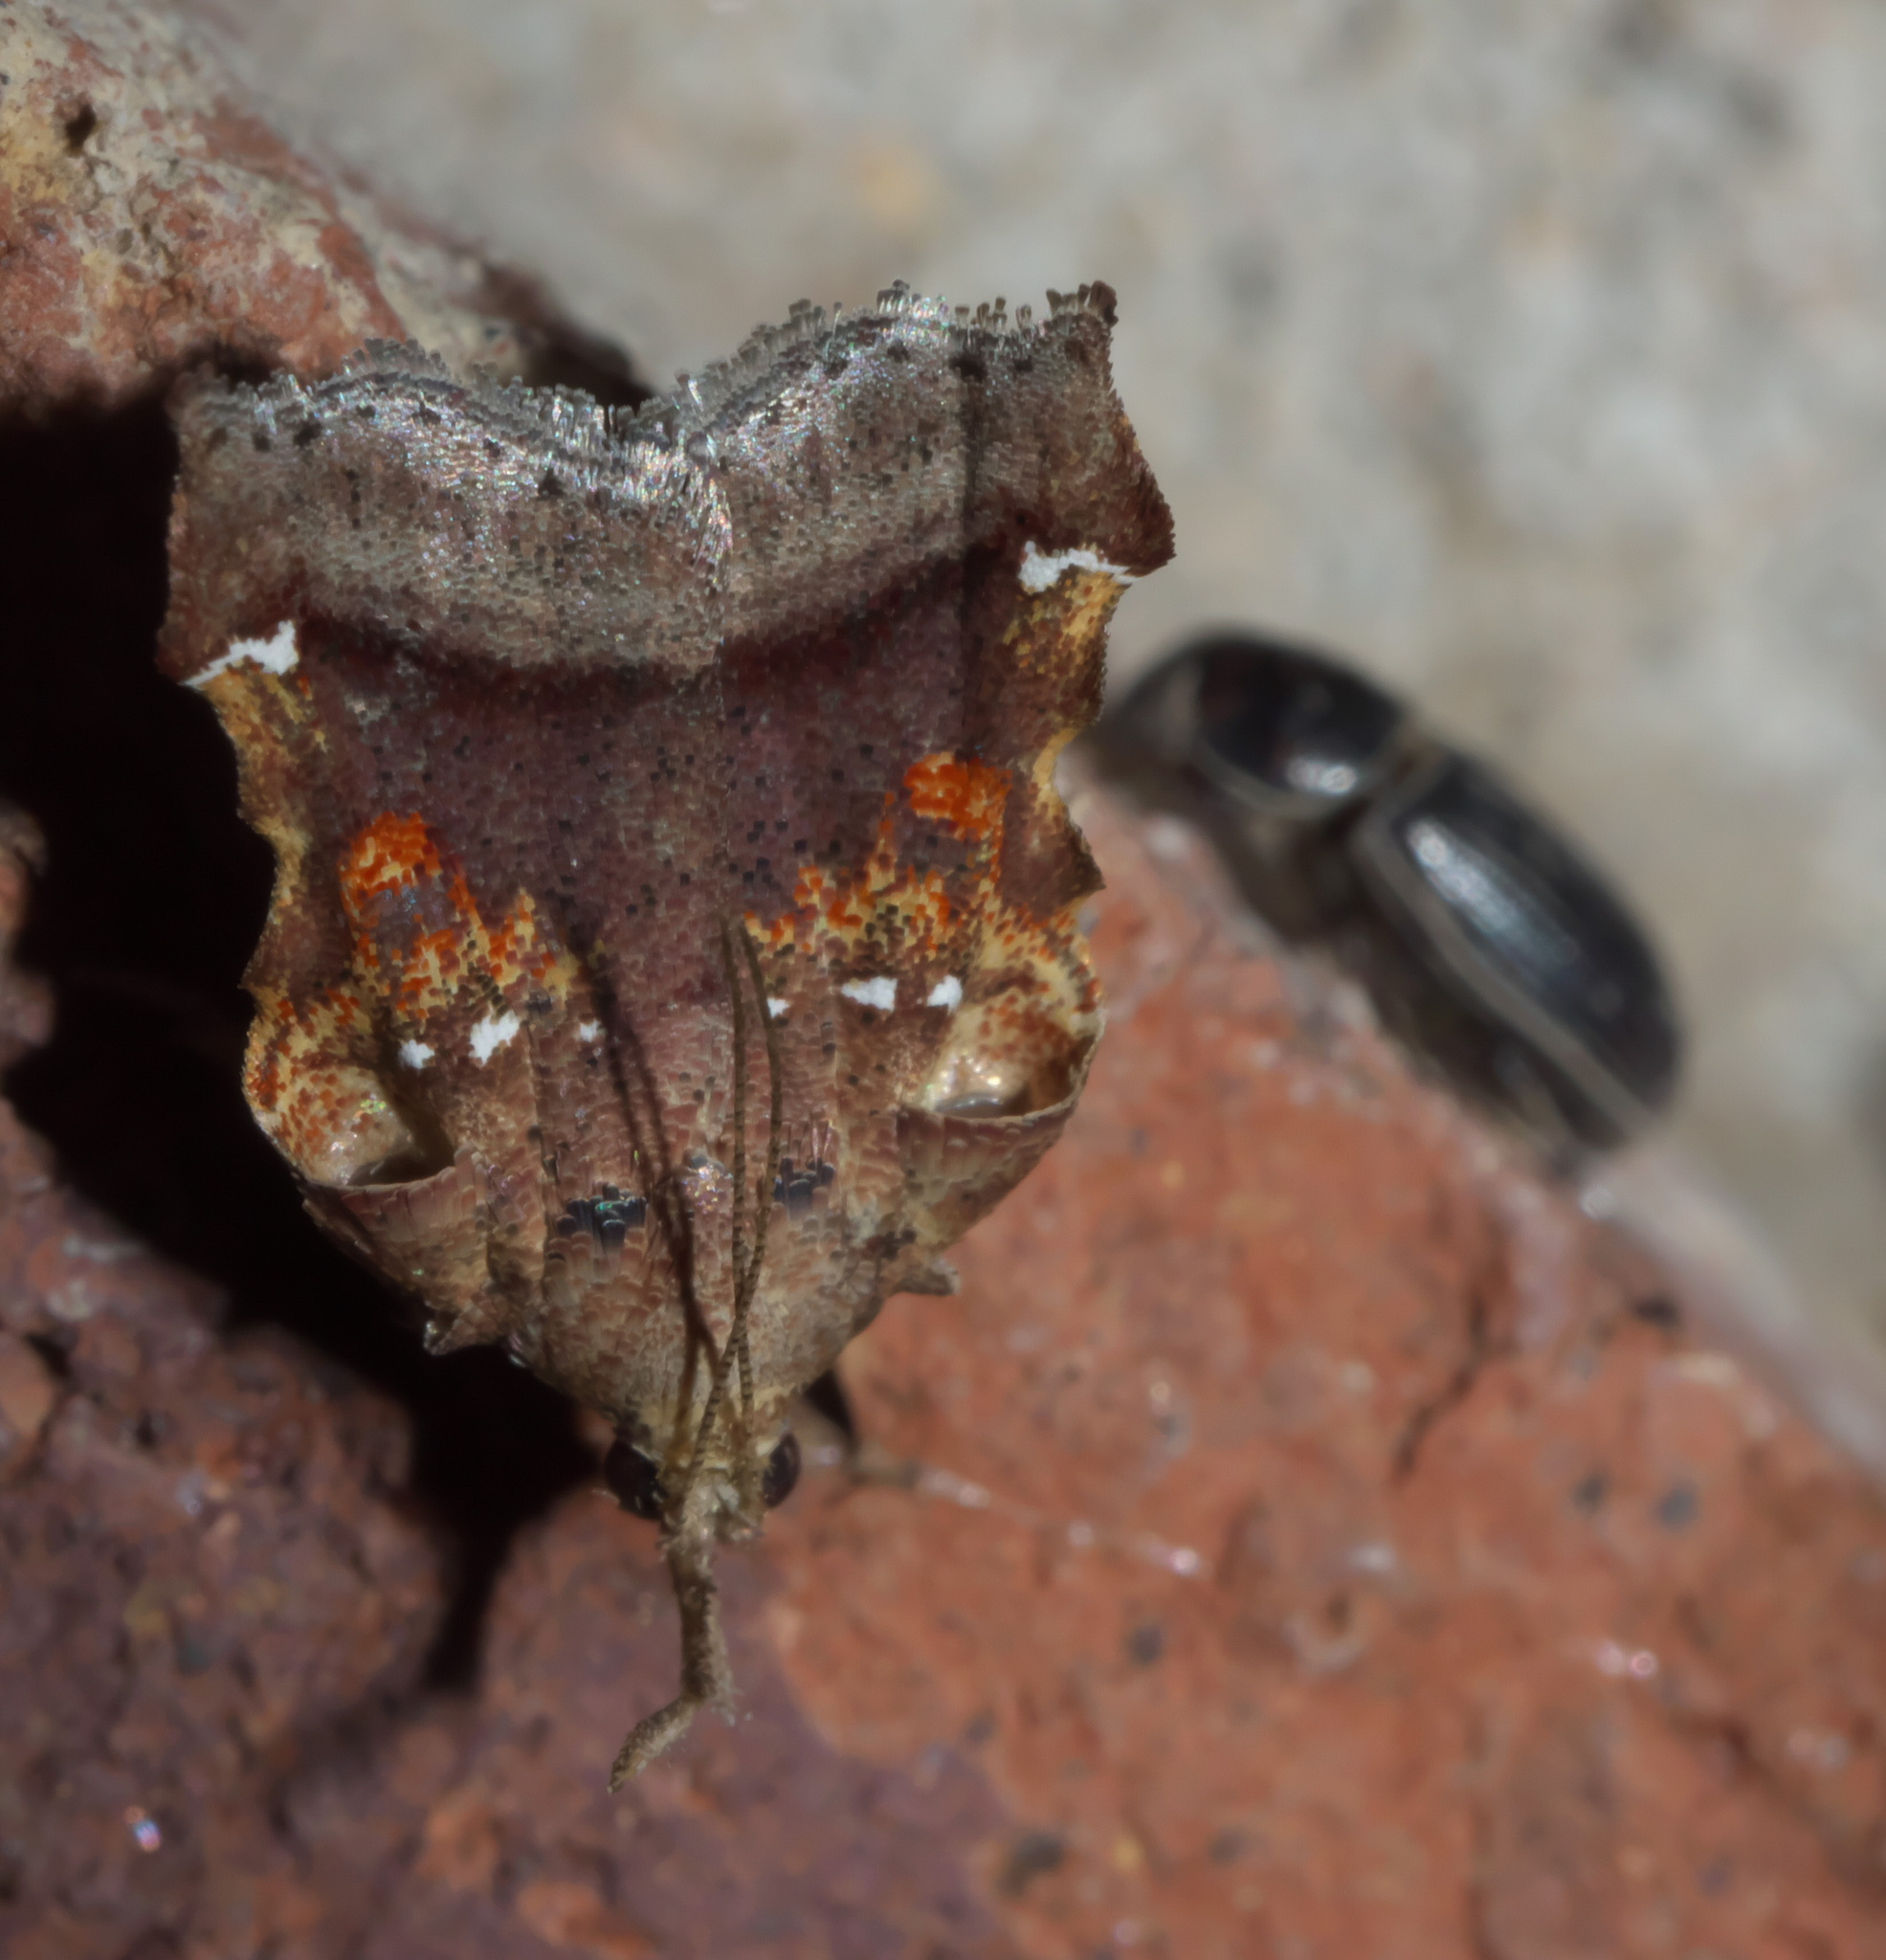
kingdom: Animalia
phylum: Arthropoda
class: Insecta
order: Lepidoptera
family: Pyralidae
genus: Clydonopteron
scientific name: Clydonopteron sacculana
